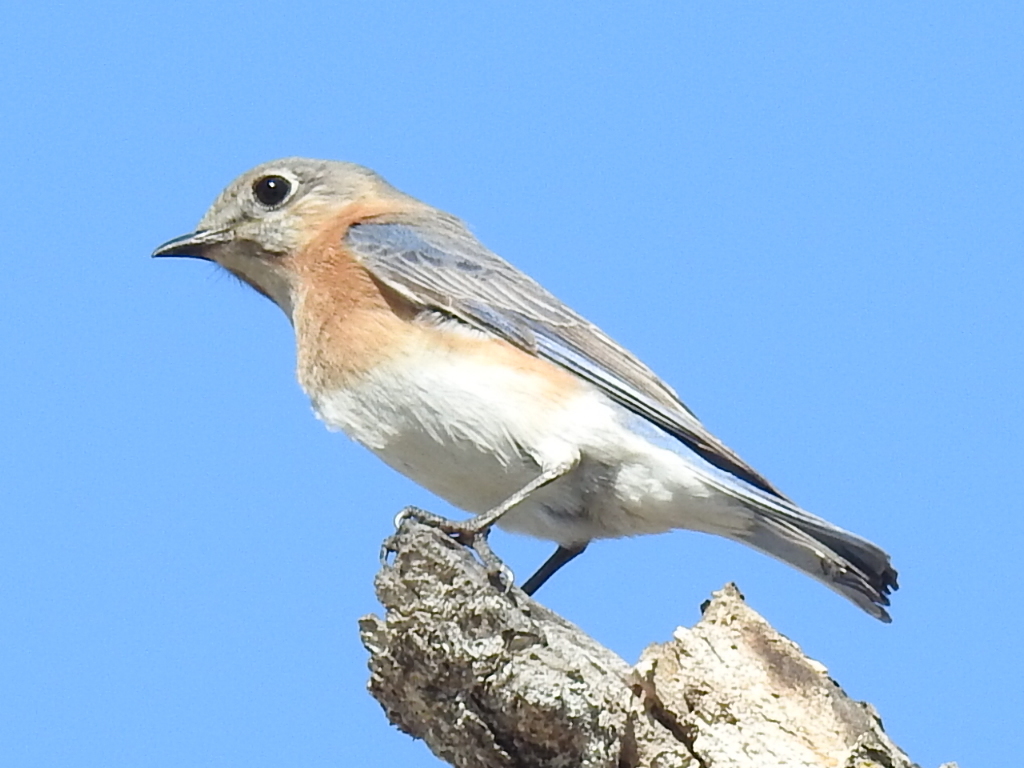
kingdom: Animalia
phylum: Chordata
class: Aves
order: Passeriformes
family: Turdidae
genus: Sialia
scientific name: Sialia sialis
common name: Eastern bluebird
